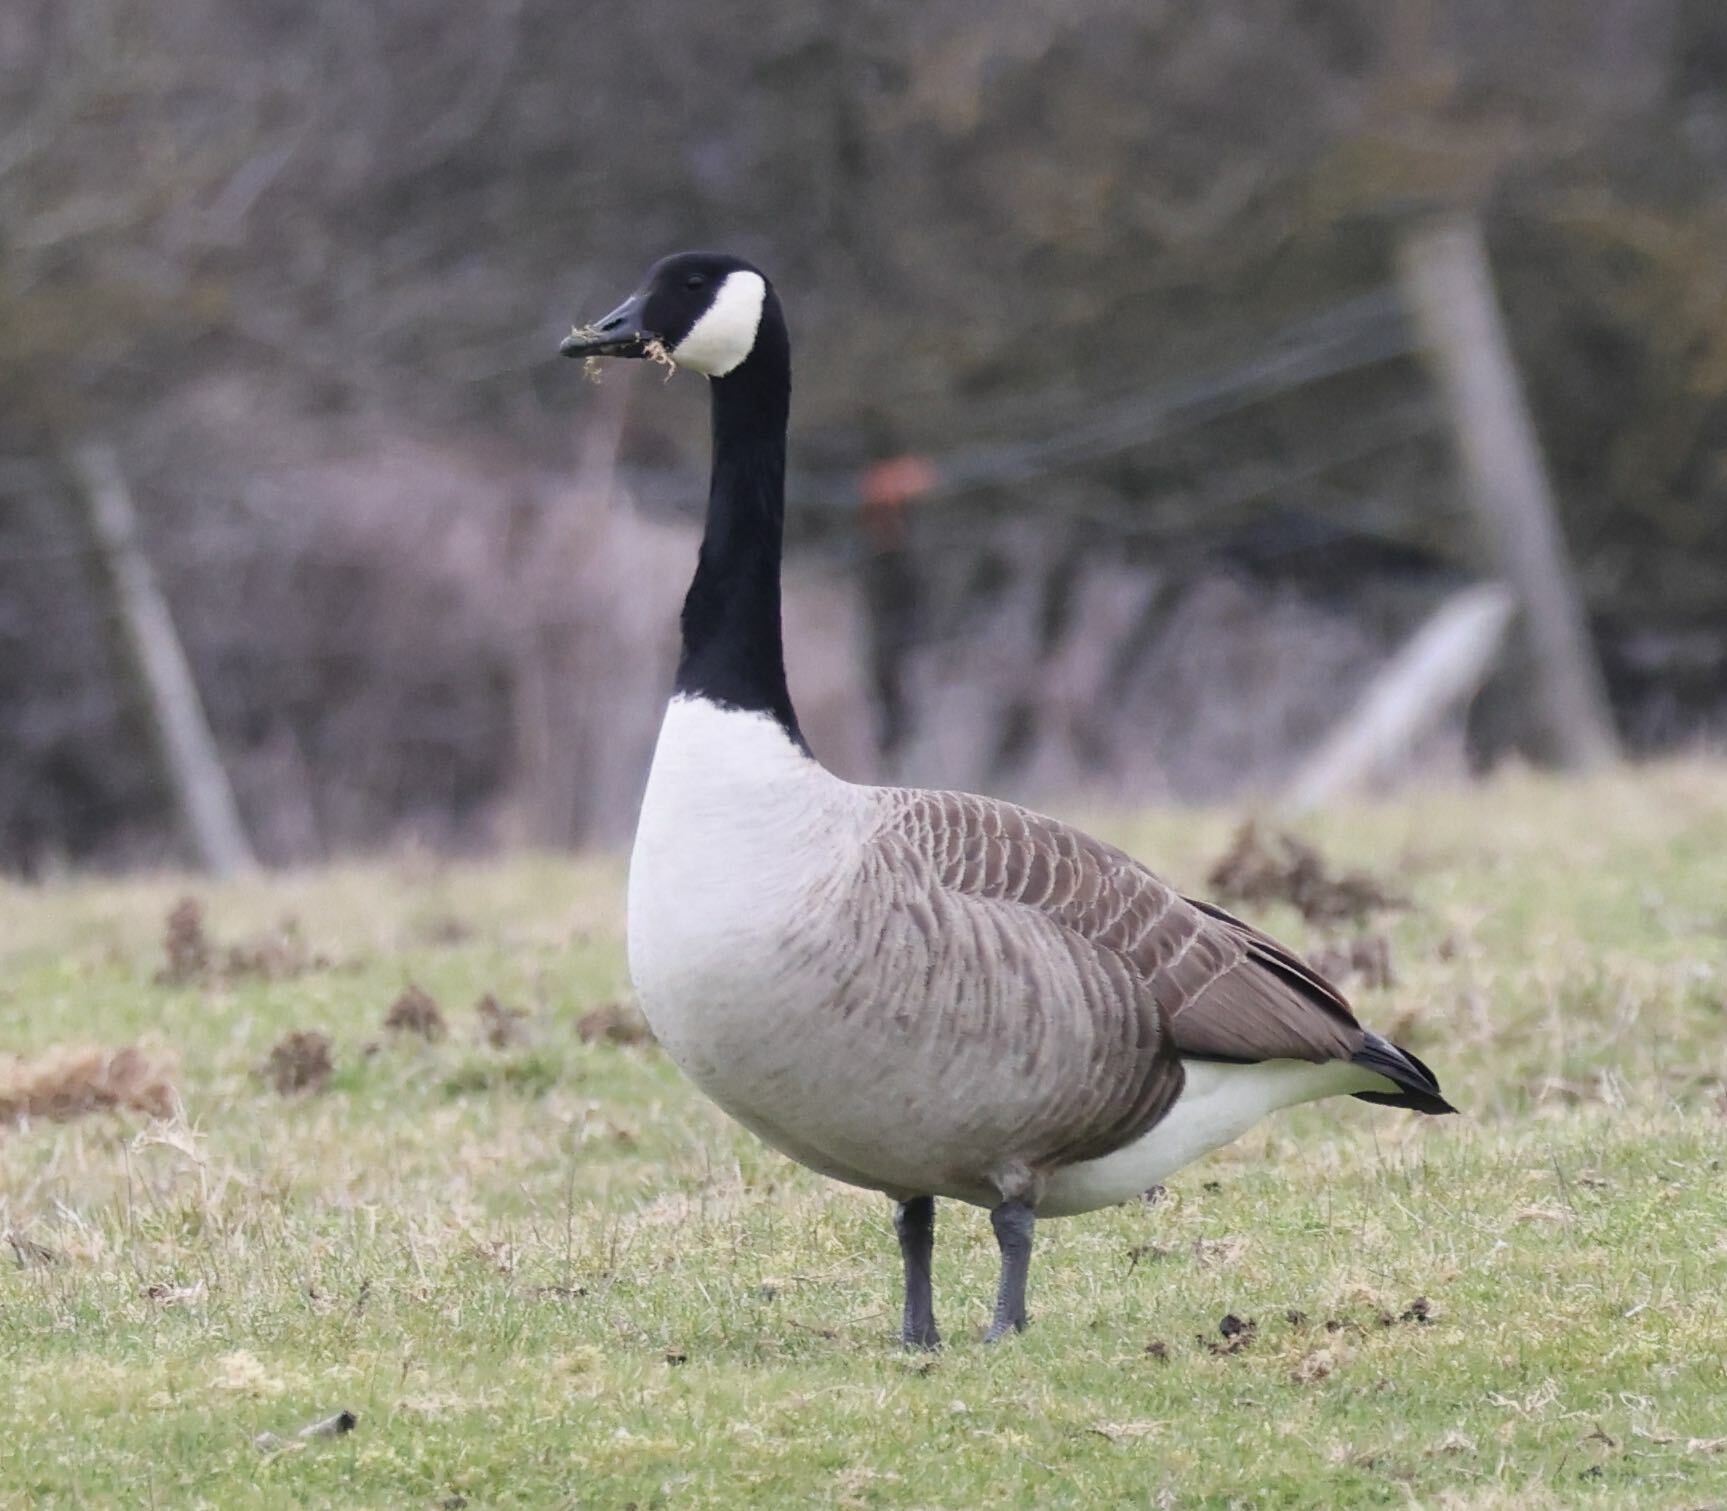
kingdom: Animalia
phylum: Chordata
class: Aves
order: Anseriformes
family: Anatidae
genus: Branta
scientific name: Branta canadensis
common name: Canada goose
